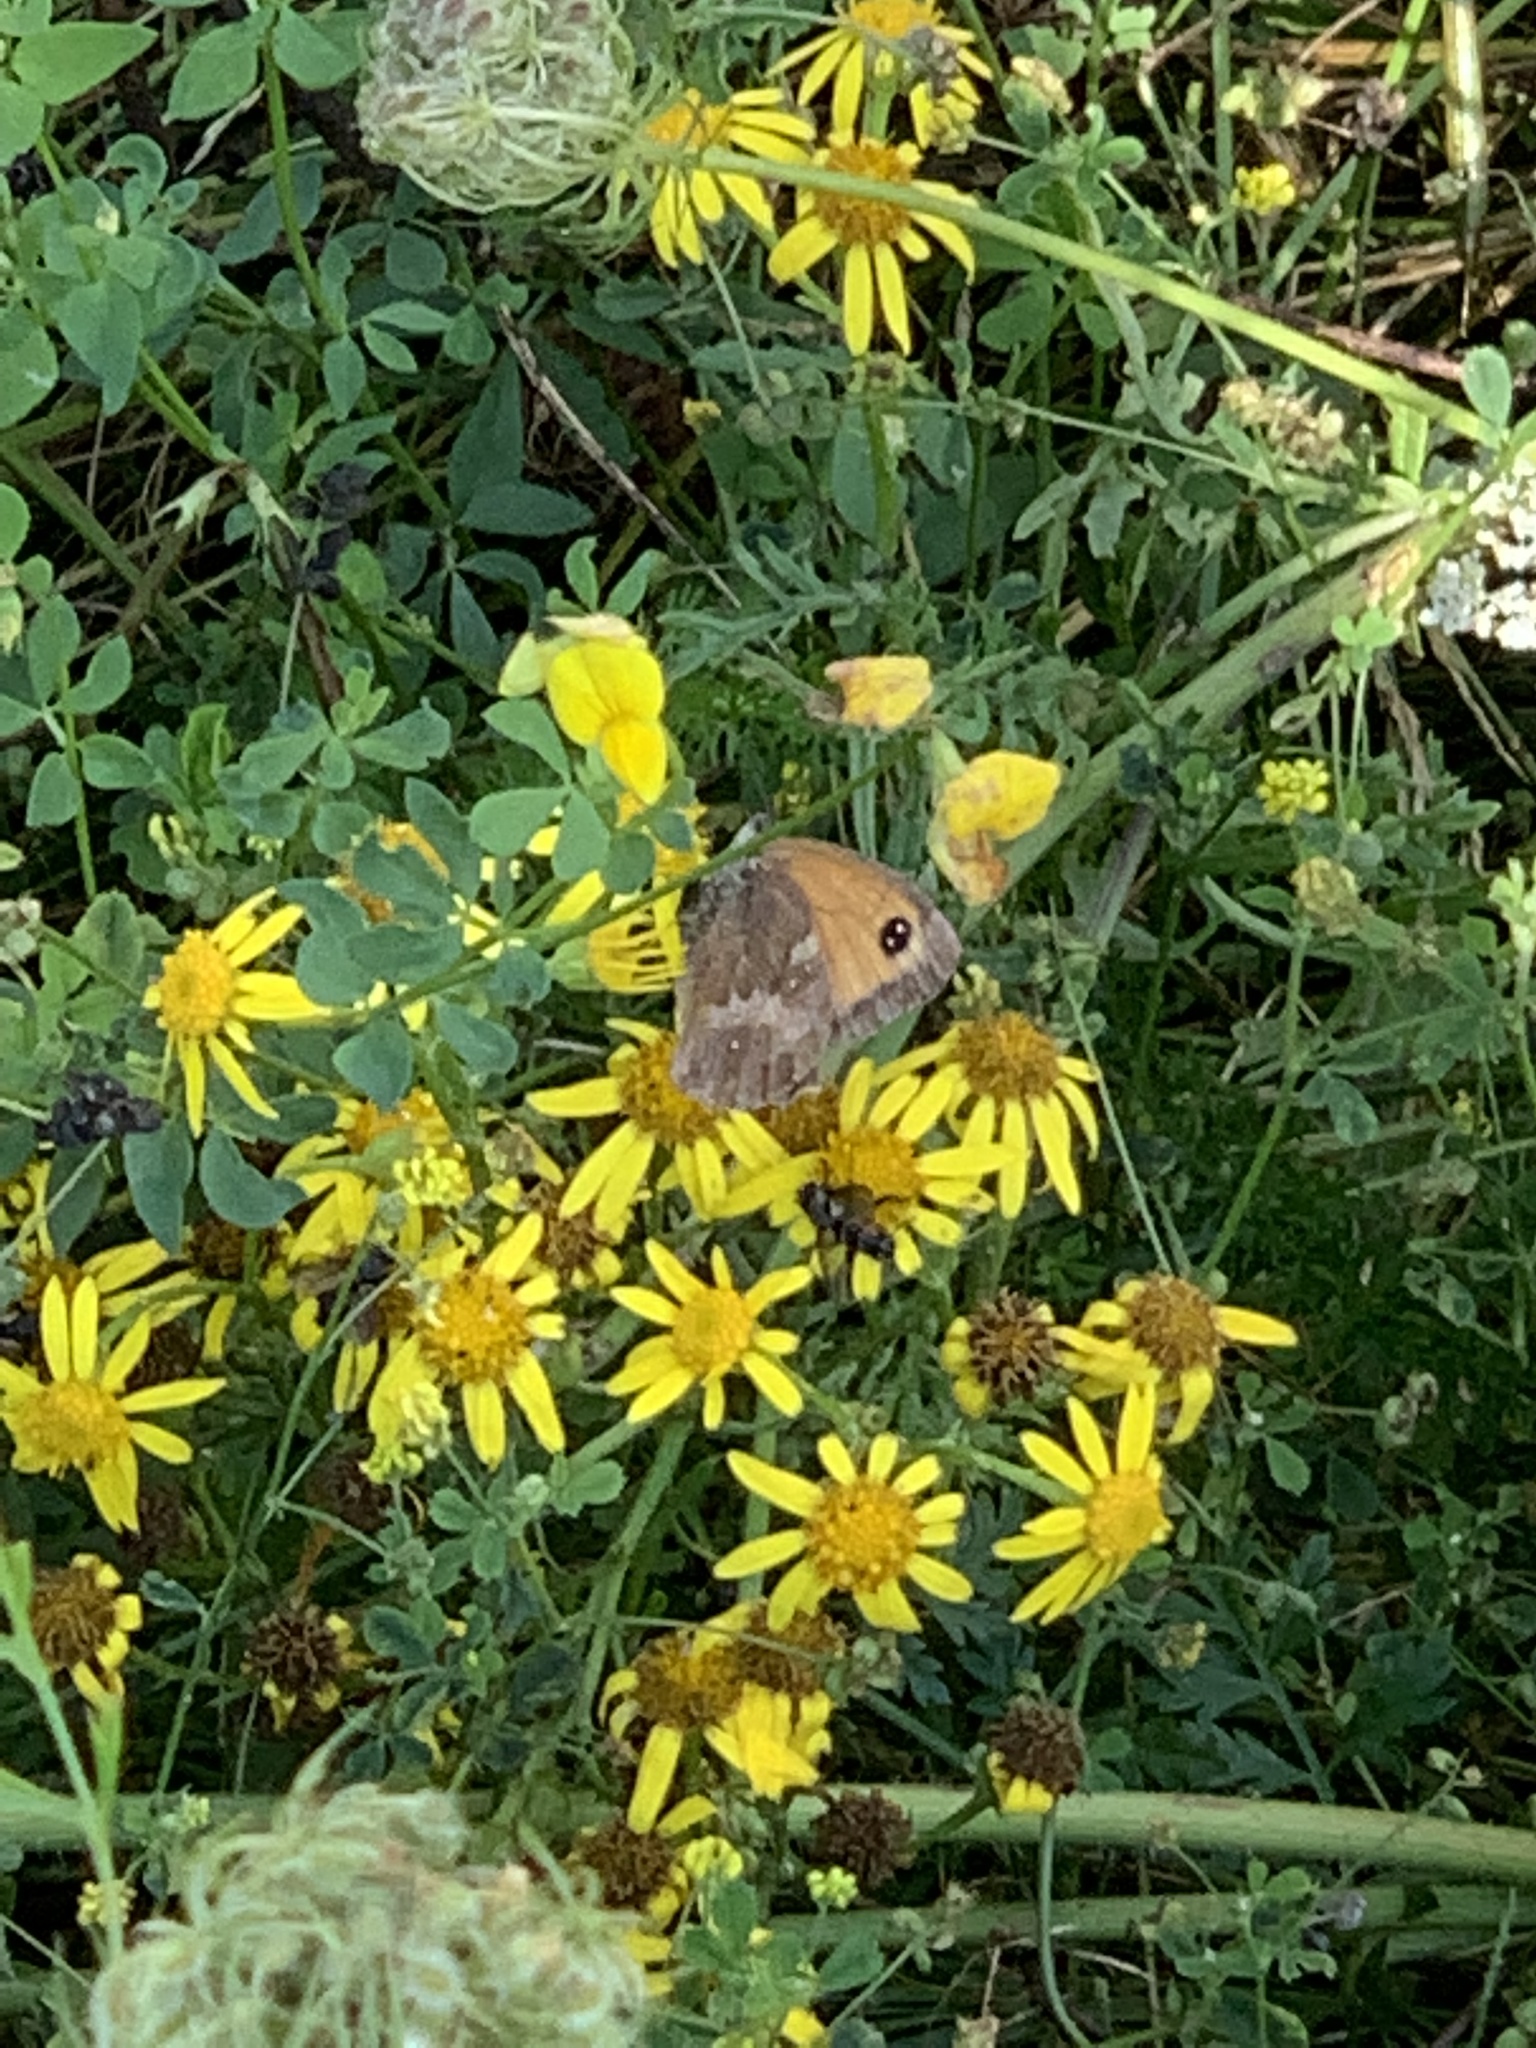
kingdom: Animalia
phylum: Arthropoda
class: Insecta
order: Lepidoptera
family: Nymphalidae
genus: Pyronia
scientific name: Pyronia tithonus
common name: Gatekeeper
